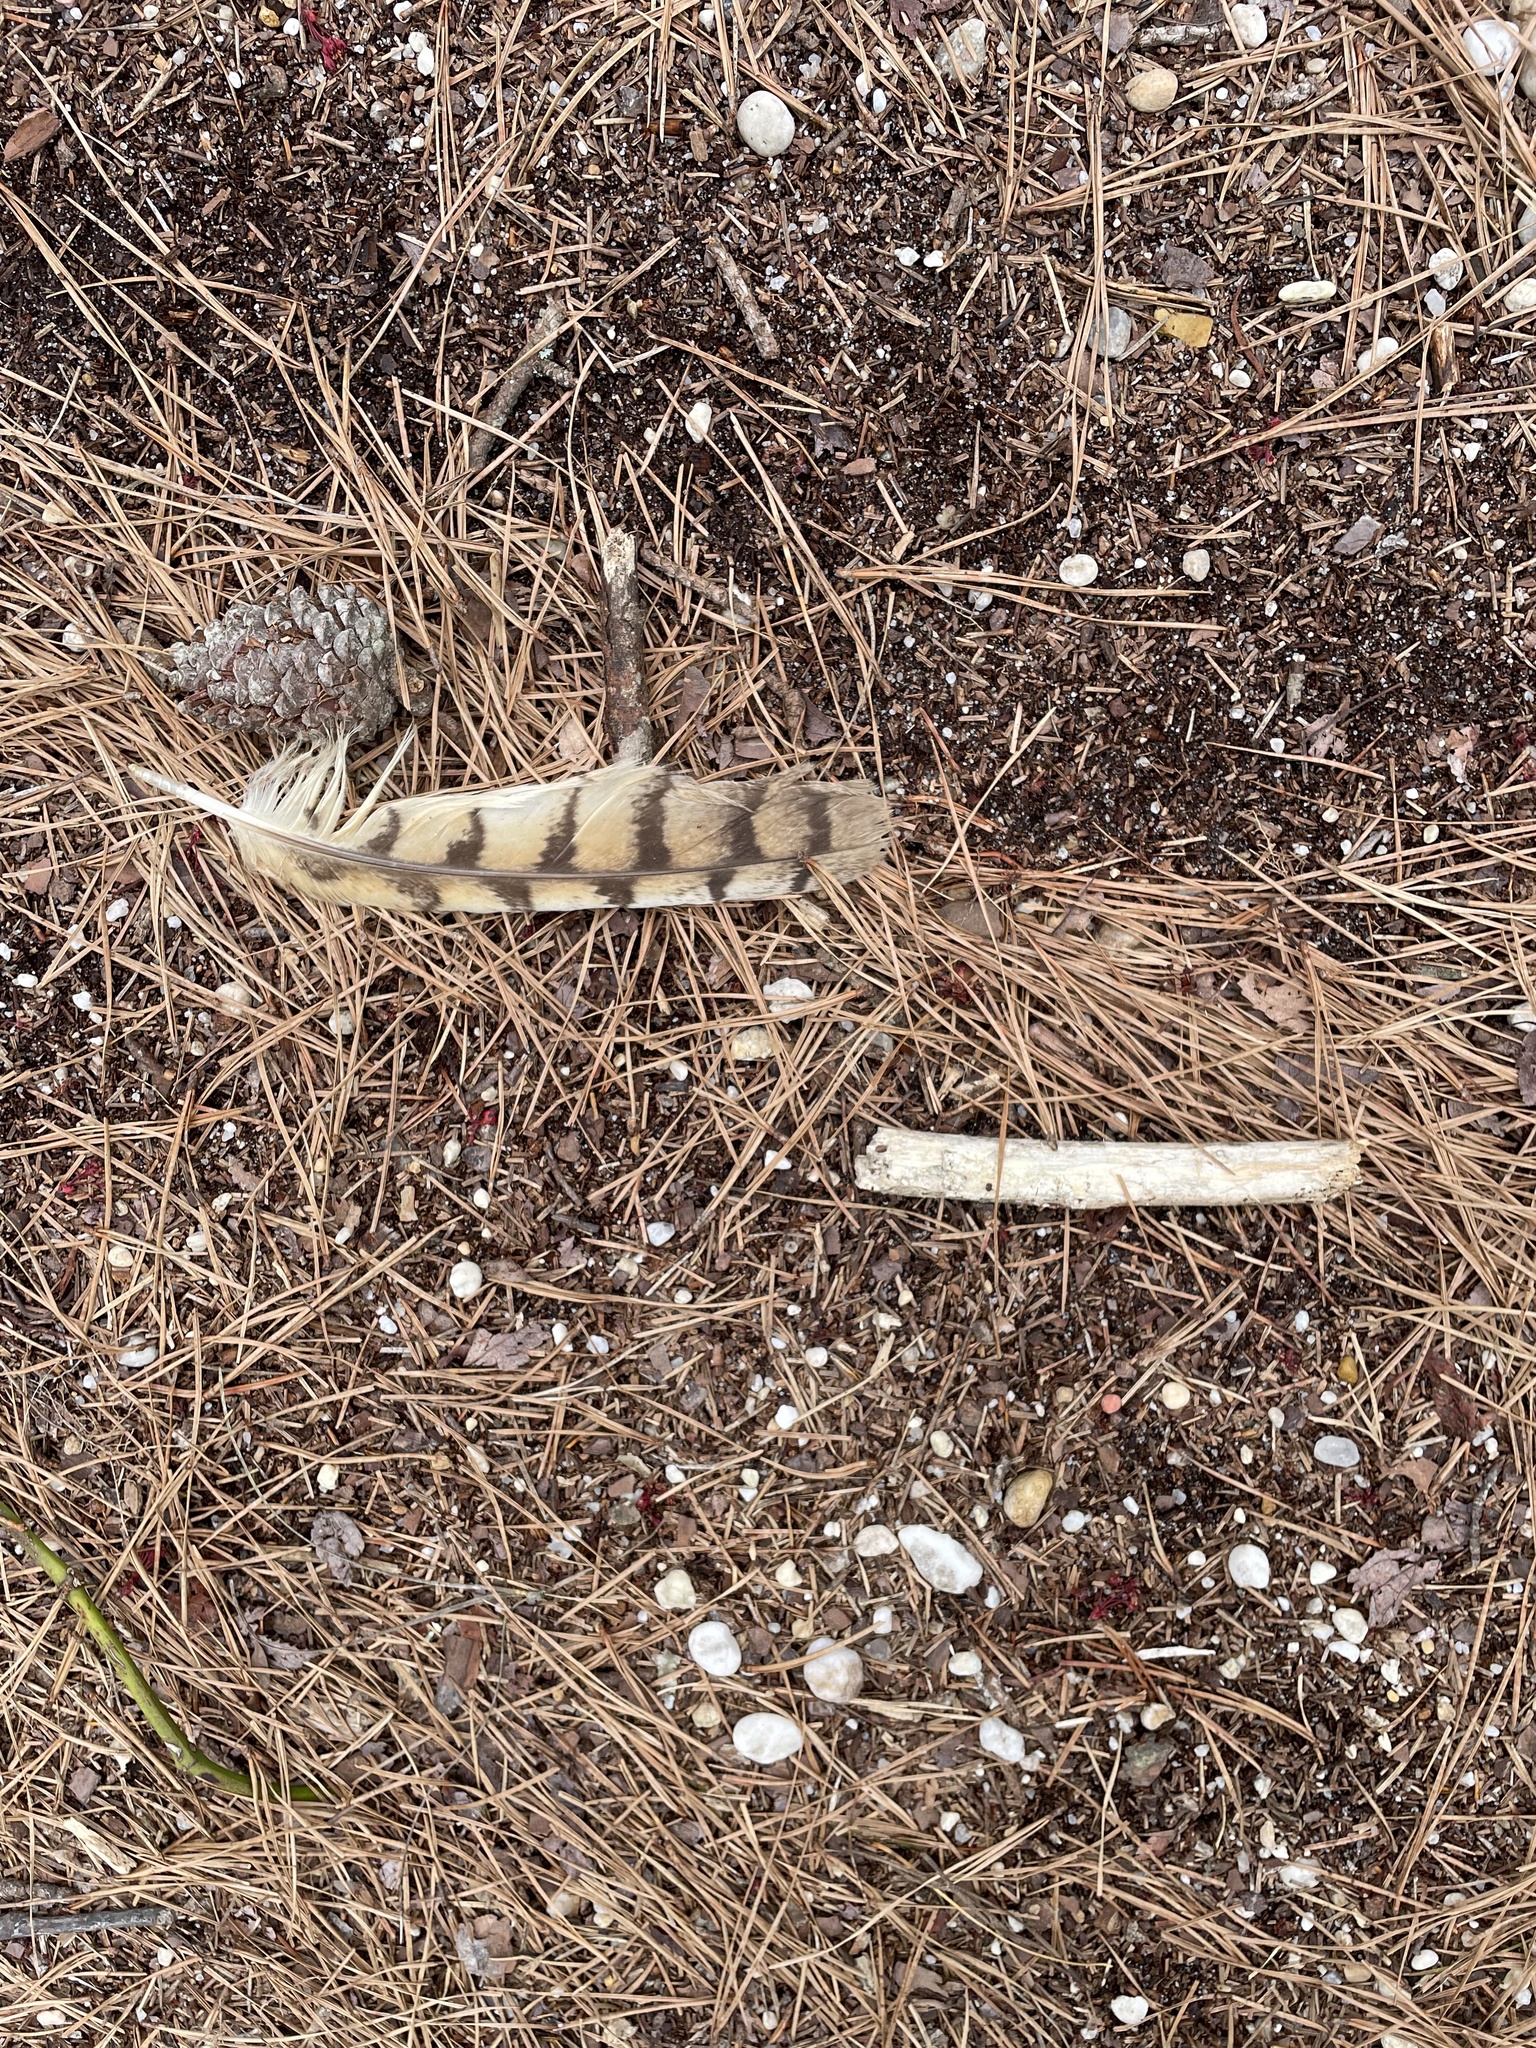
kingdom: Animalia
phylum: Chordata
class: Aves
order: Strigiformes
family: Strigidae
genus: Bubo
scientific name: Bubo virginianus
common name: Great horned owl
